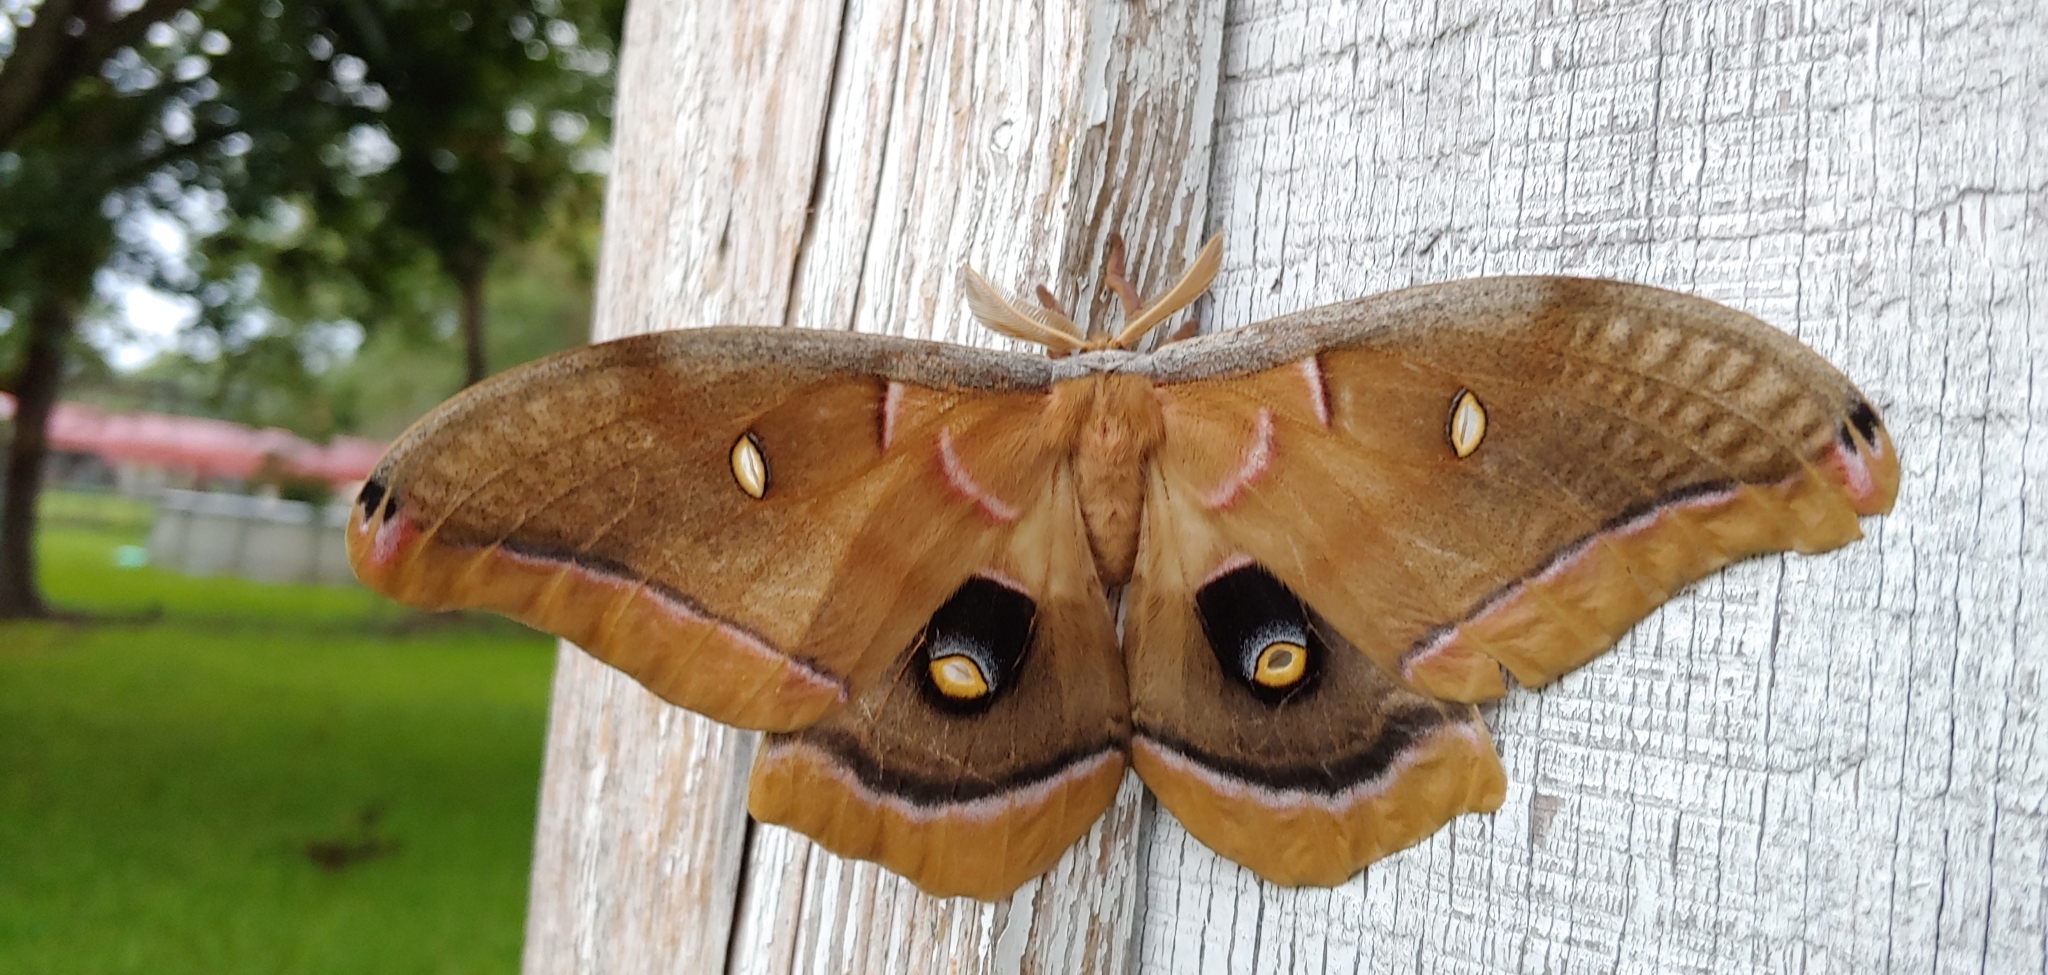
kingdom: Animalia
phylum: Arthropoda
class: Insecta
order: Lepidoptera
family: Saturniidae
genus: Antheraea
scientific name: Antheraea polyphemus
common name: Polyphemus moth
